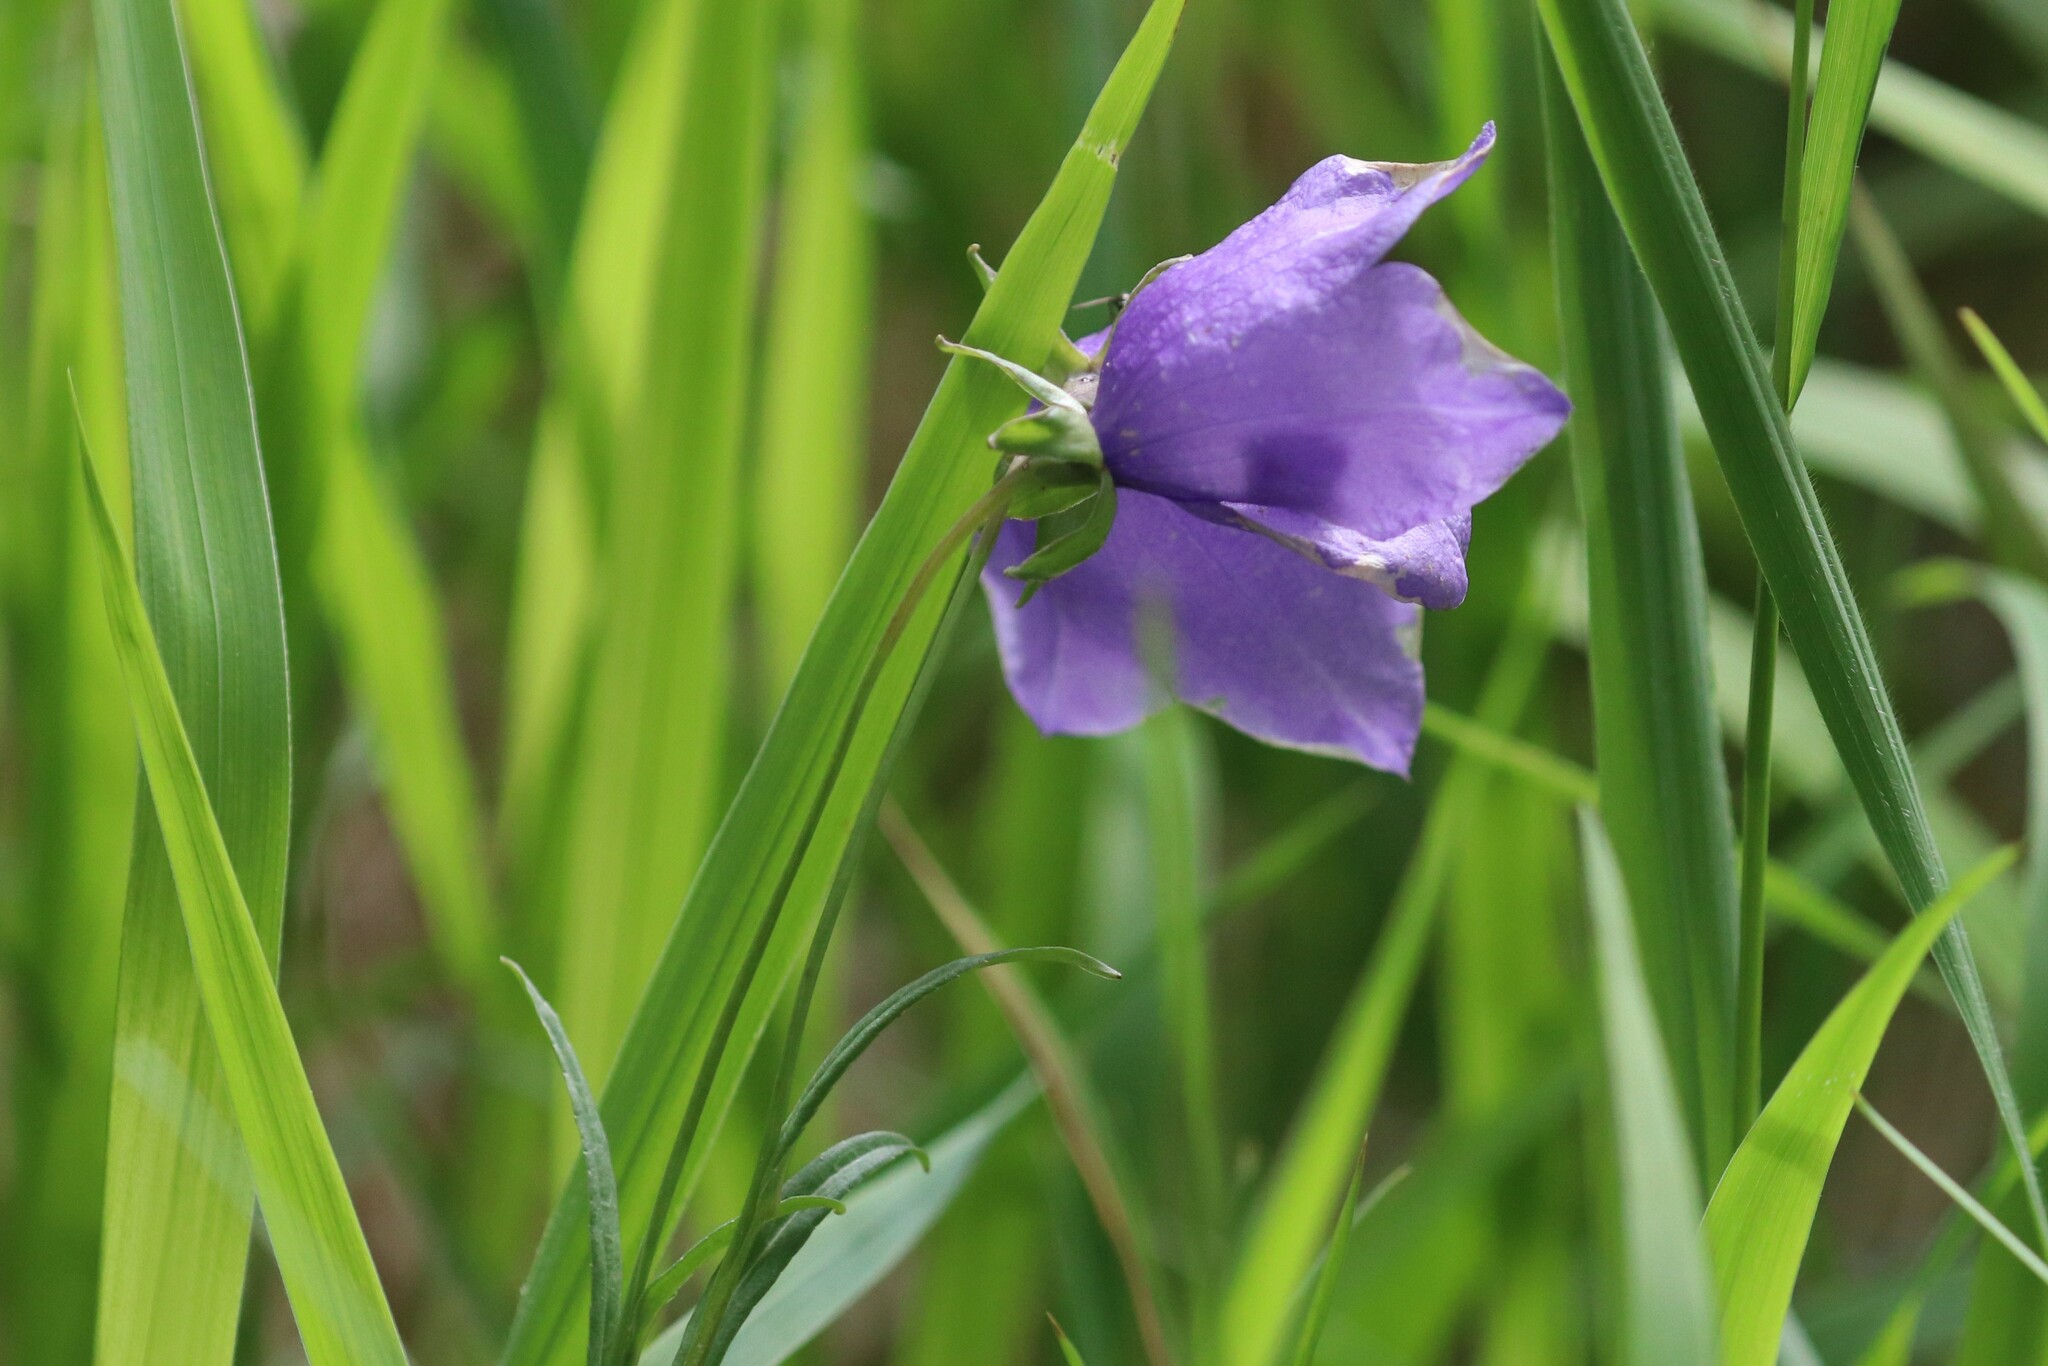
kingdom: Plantae
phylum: Tracheophyta
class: Magnoliopsida
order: Asterales
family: Campanulaceae
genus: Campanula
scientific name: Campanula persicifolia
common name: Peach-leaved bellflower
